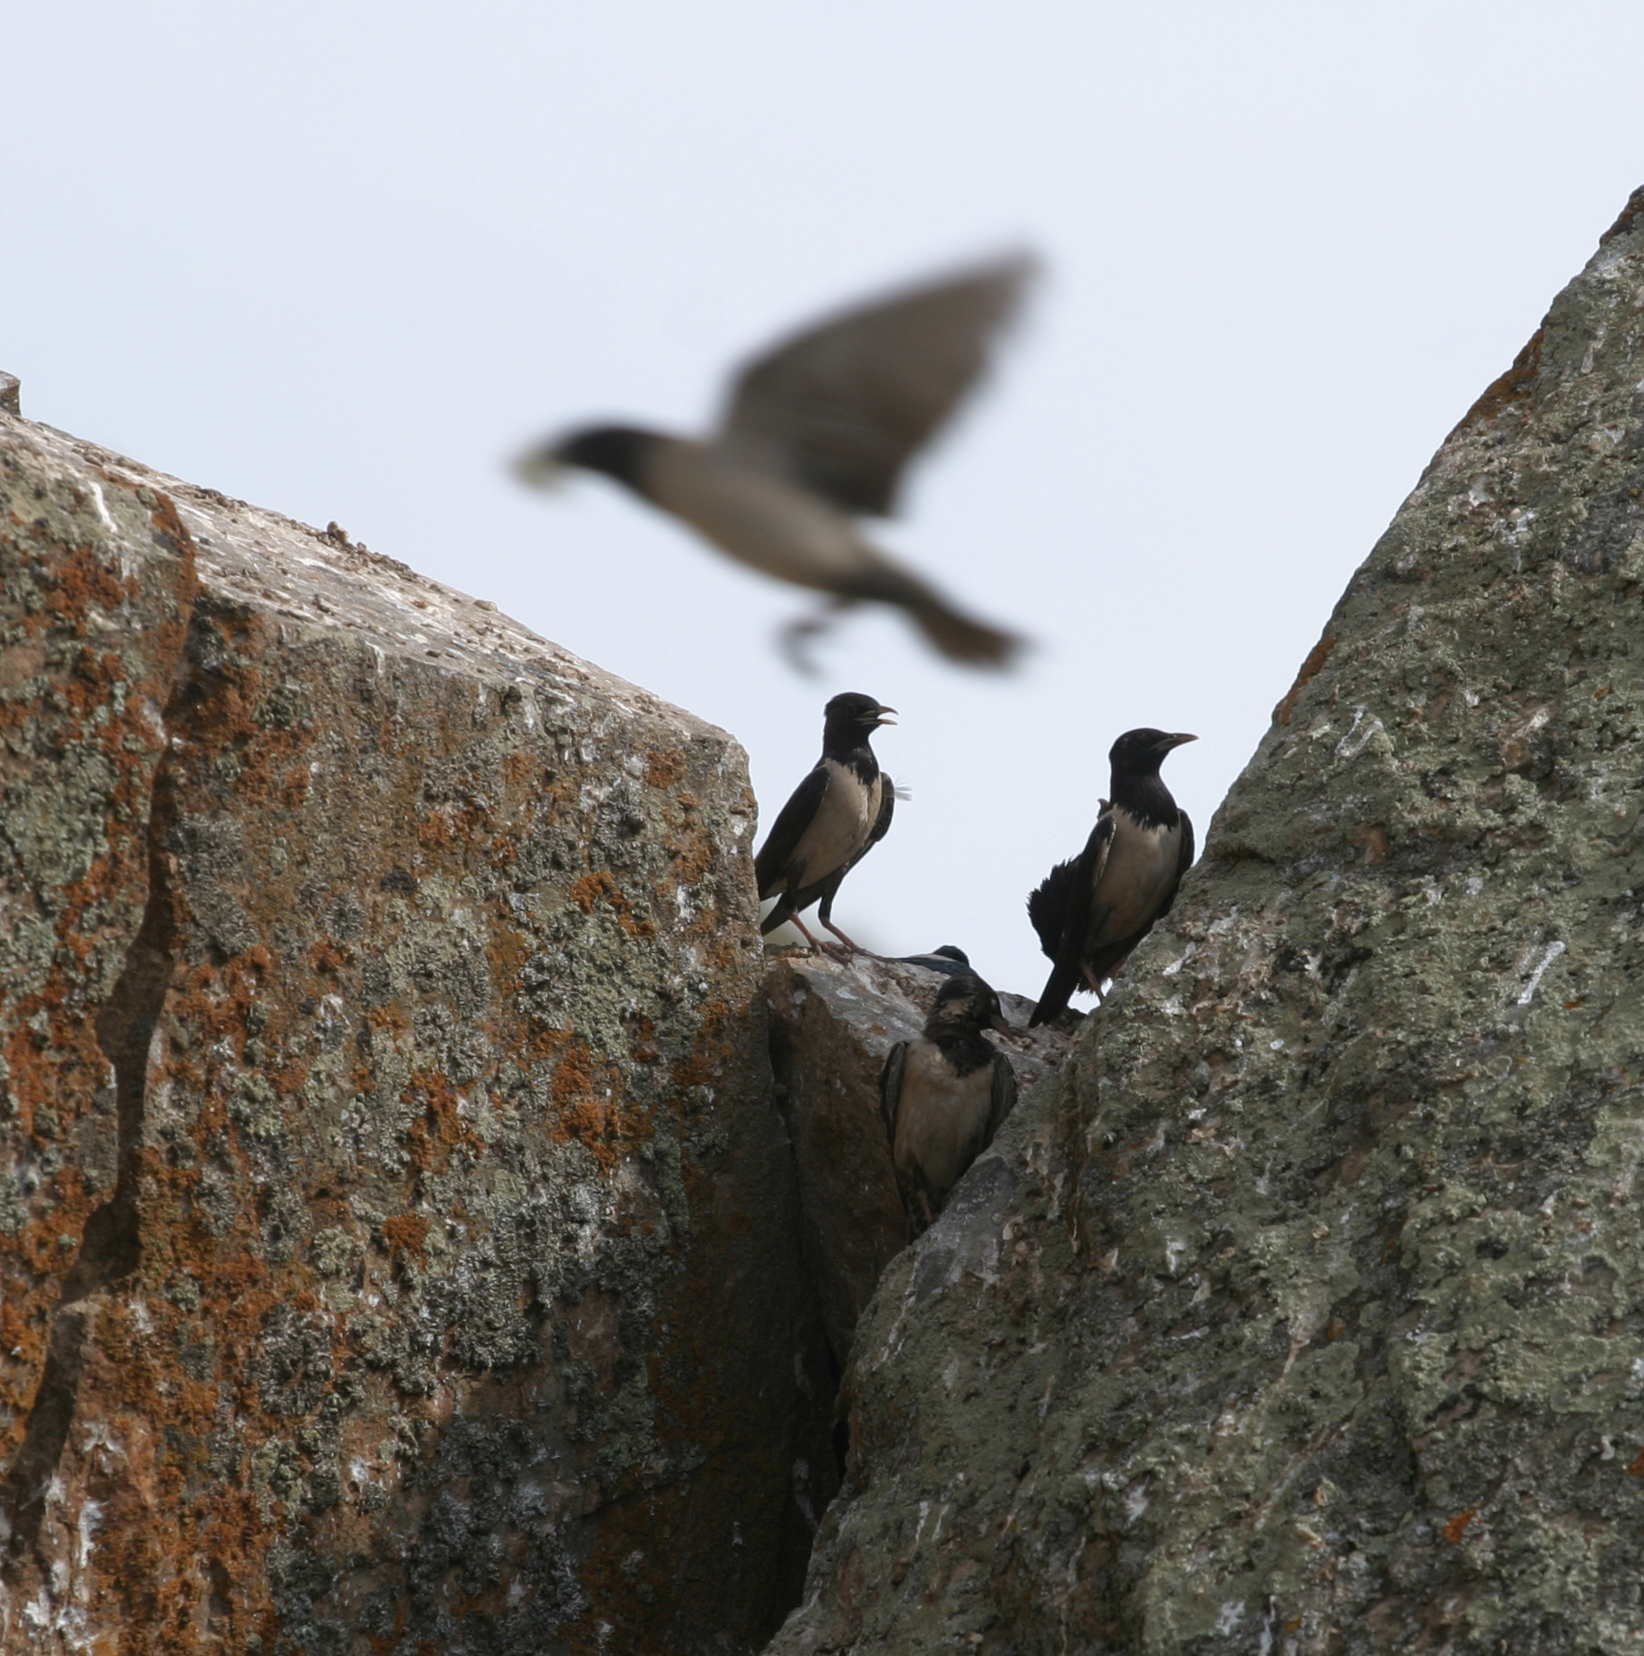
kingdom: Animalia
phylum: Chordata
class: Aves
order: Passeriformes
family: Sturnidae
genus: Pastor
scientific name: Pastor roseus
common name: Rosy starling
